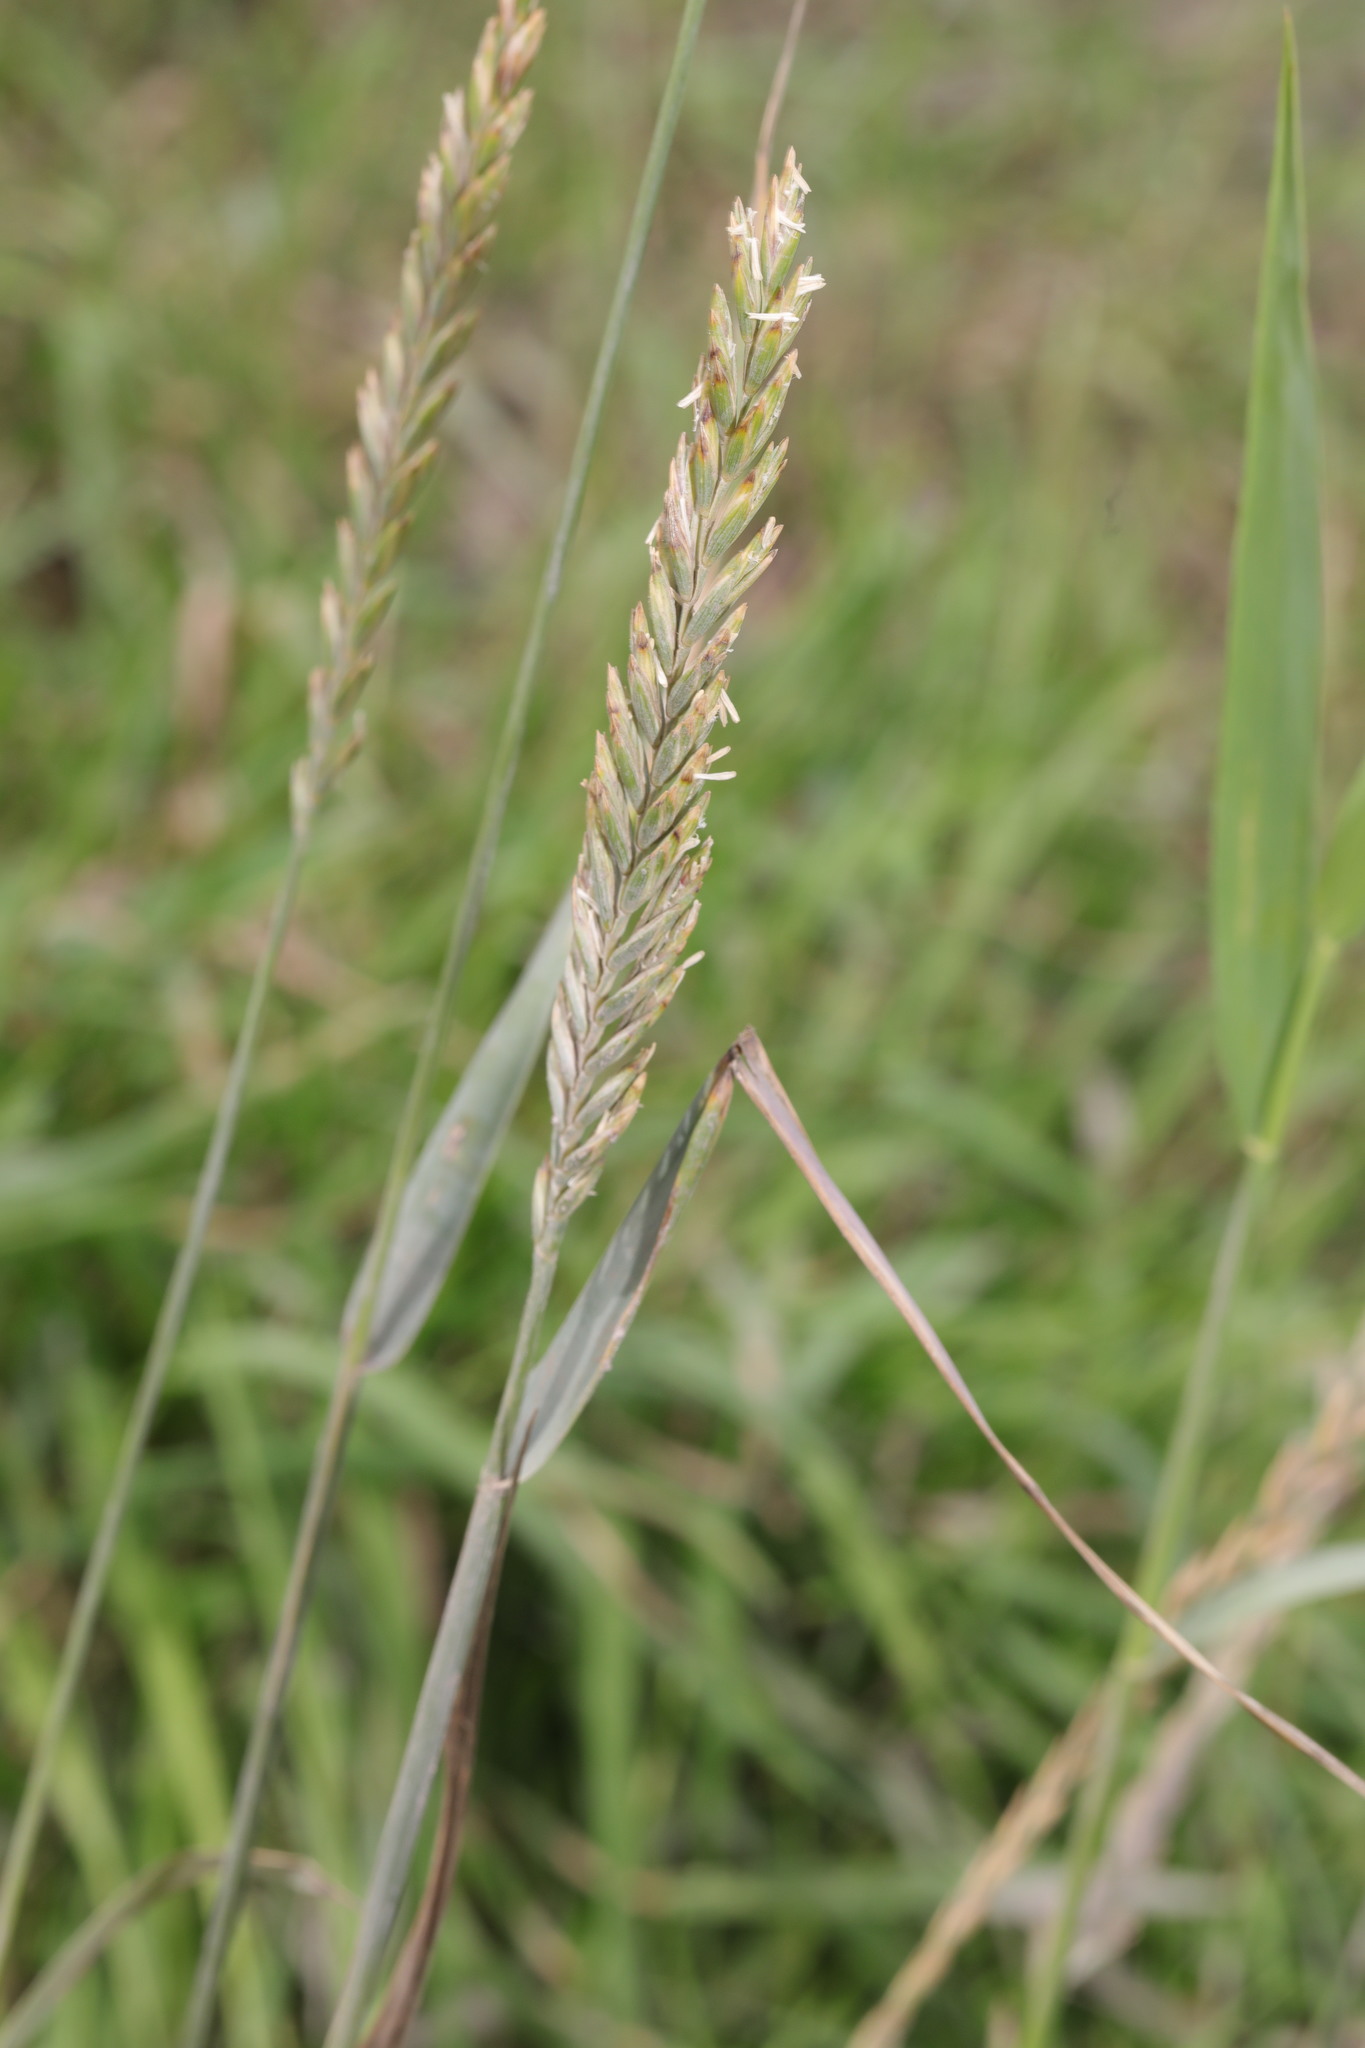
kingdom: Plantae
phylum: Tracheophyta
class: Liliopsida
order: Poales
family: Poaceae
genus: Elymus
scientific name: Elymus repens
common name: Quackgrass
